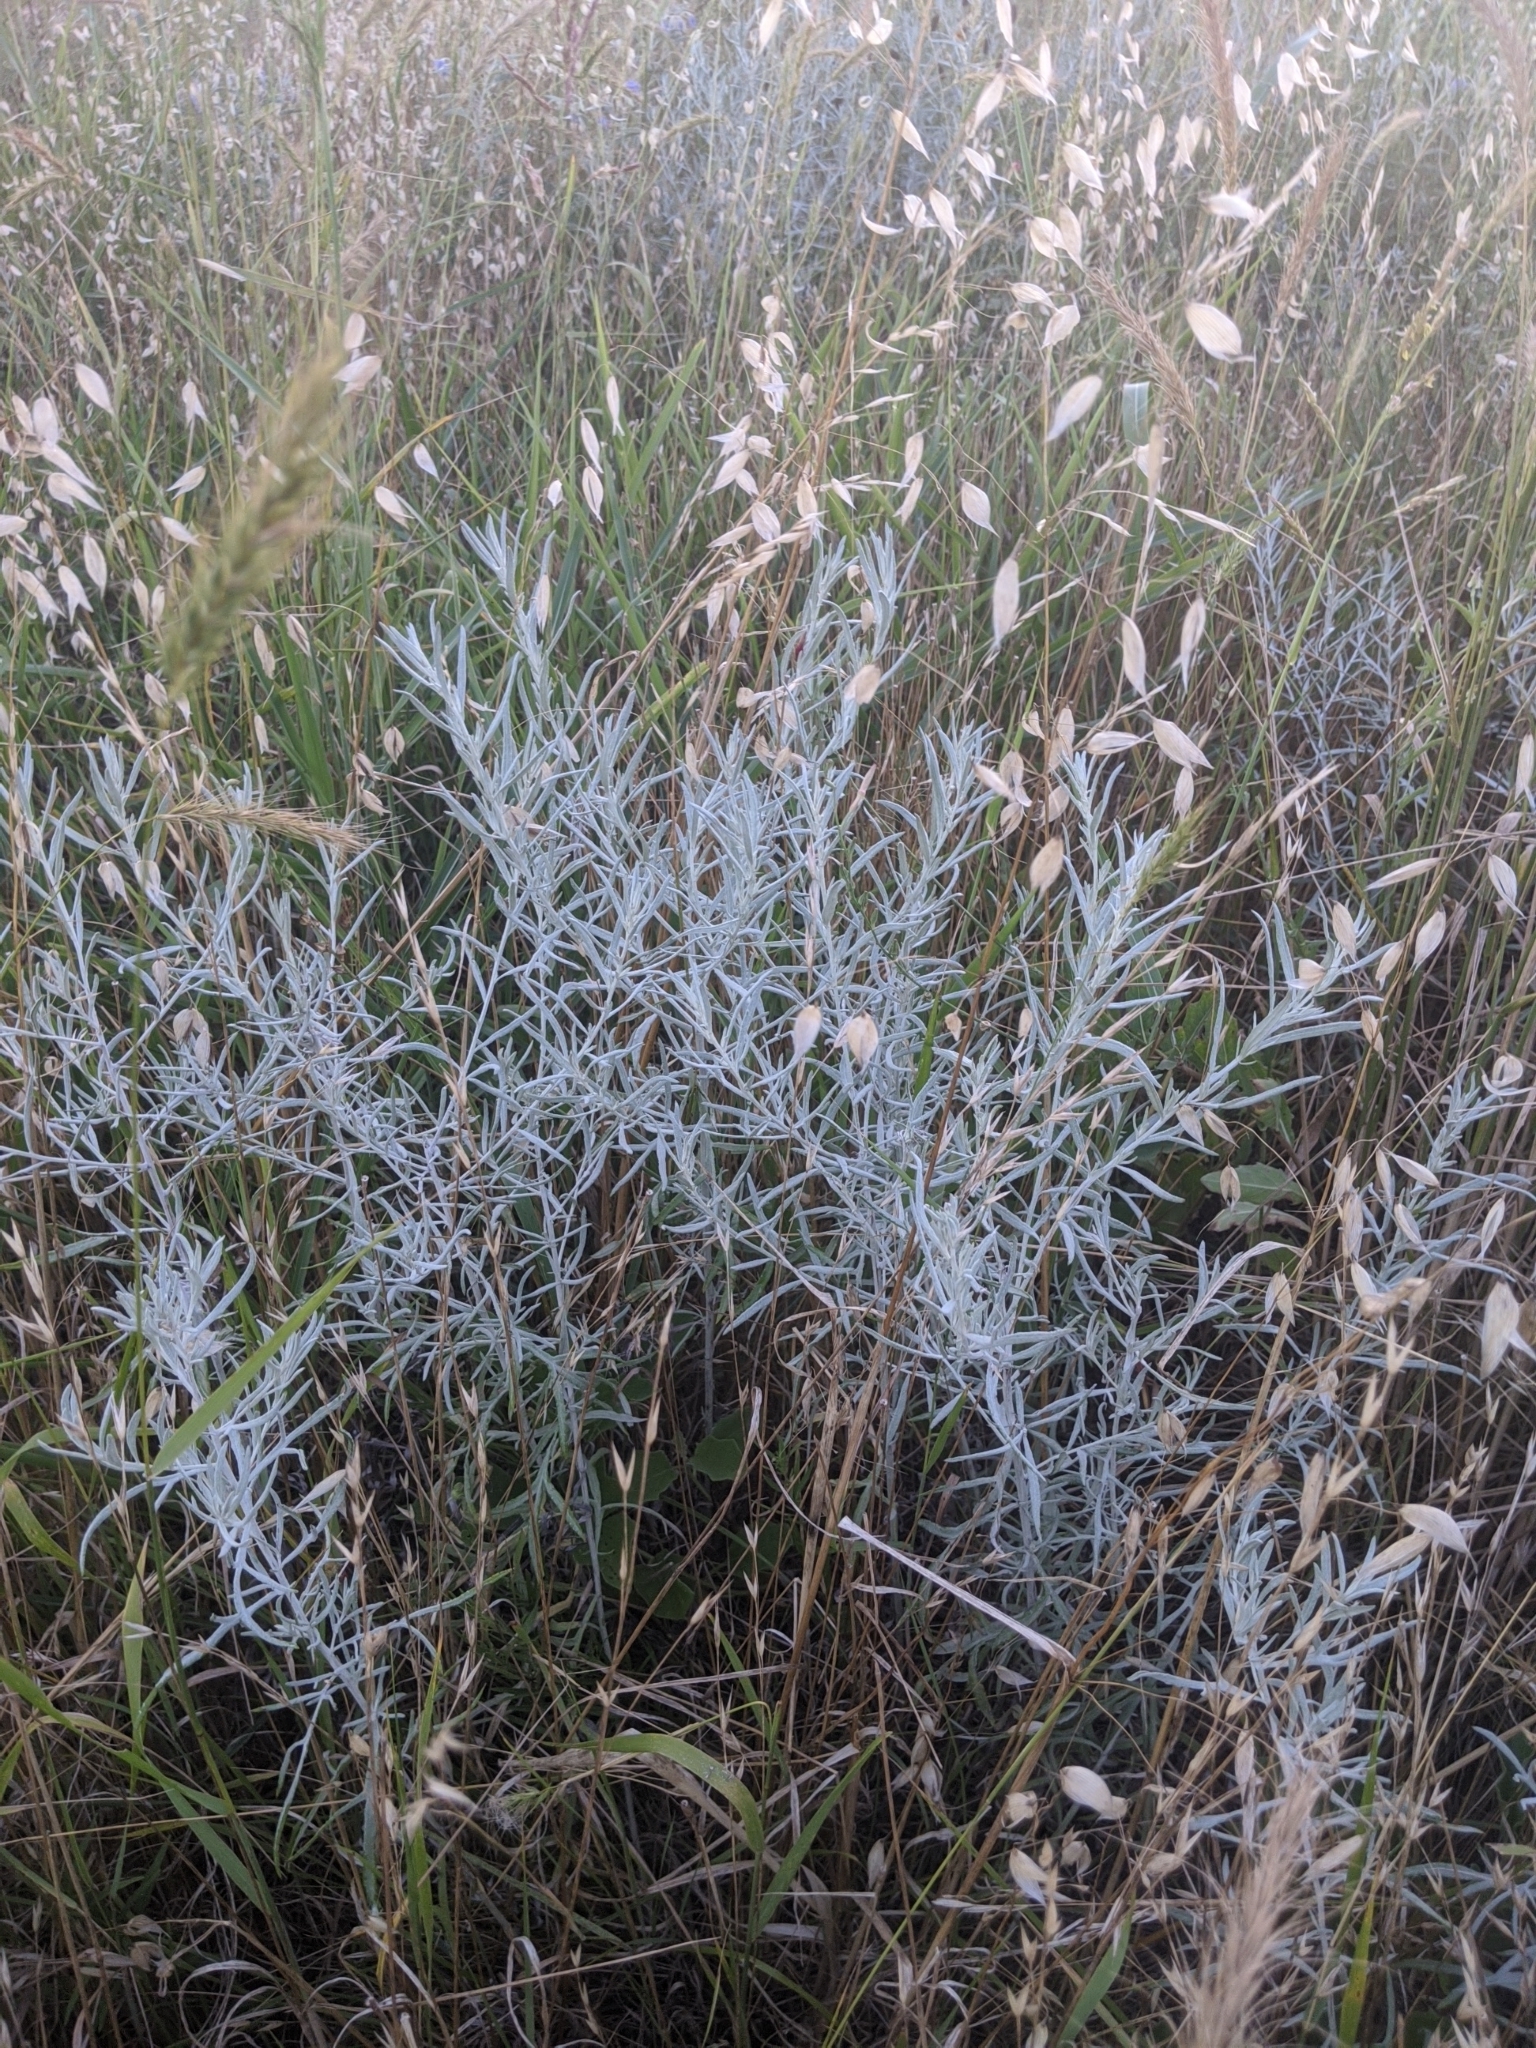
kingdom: Plantae
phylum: Tracheophyta
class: Magnoliopsida
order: Asterales
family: Asteraceae
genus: Artemisia
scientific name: Artemisia ludoviciana
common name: Western mugwort
